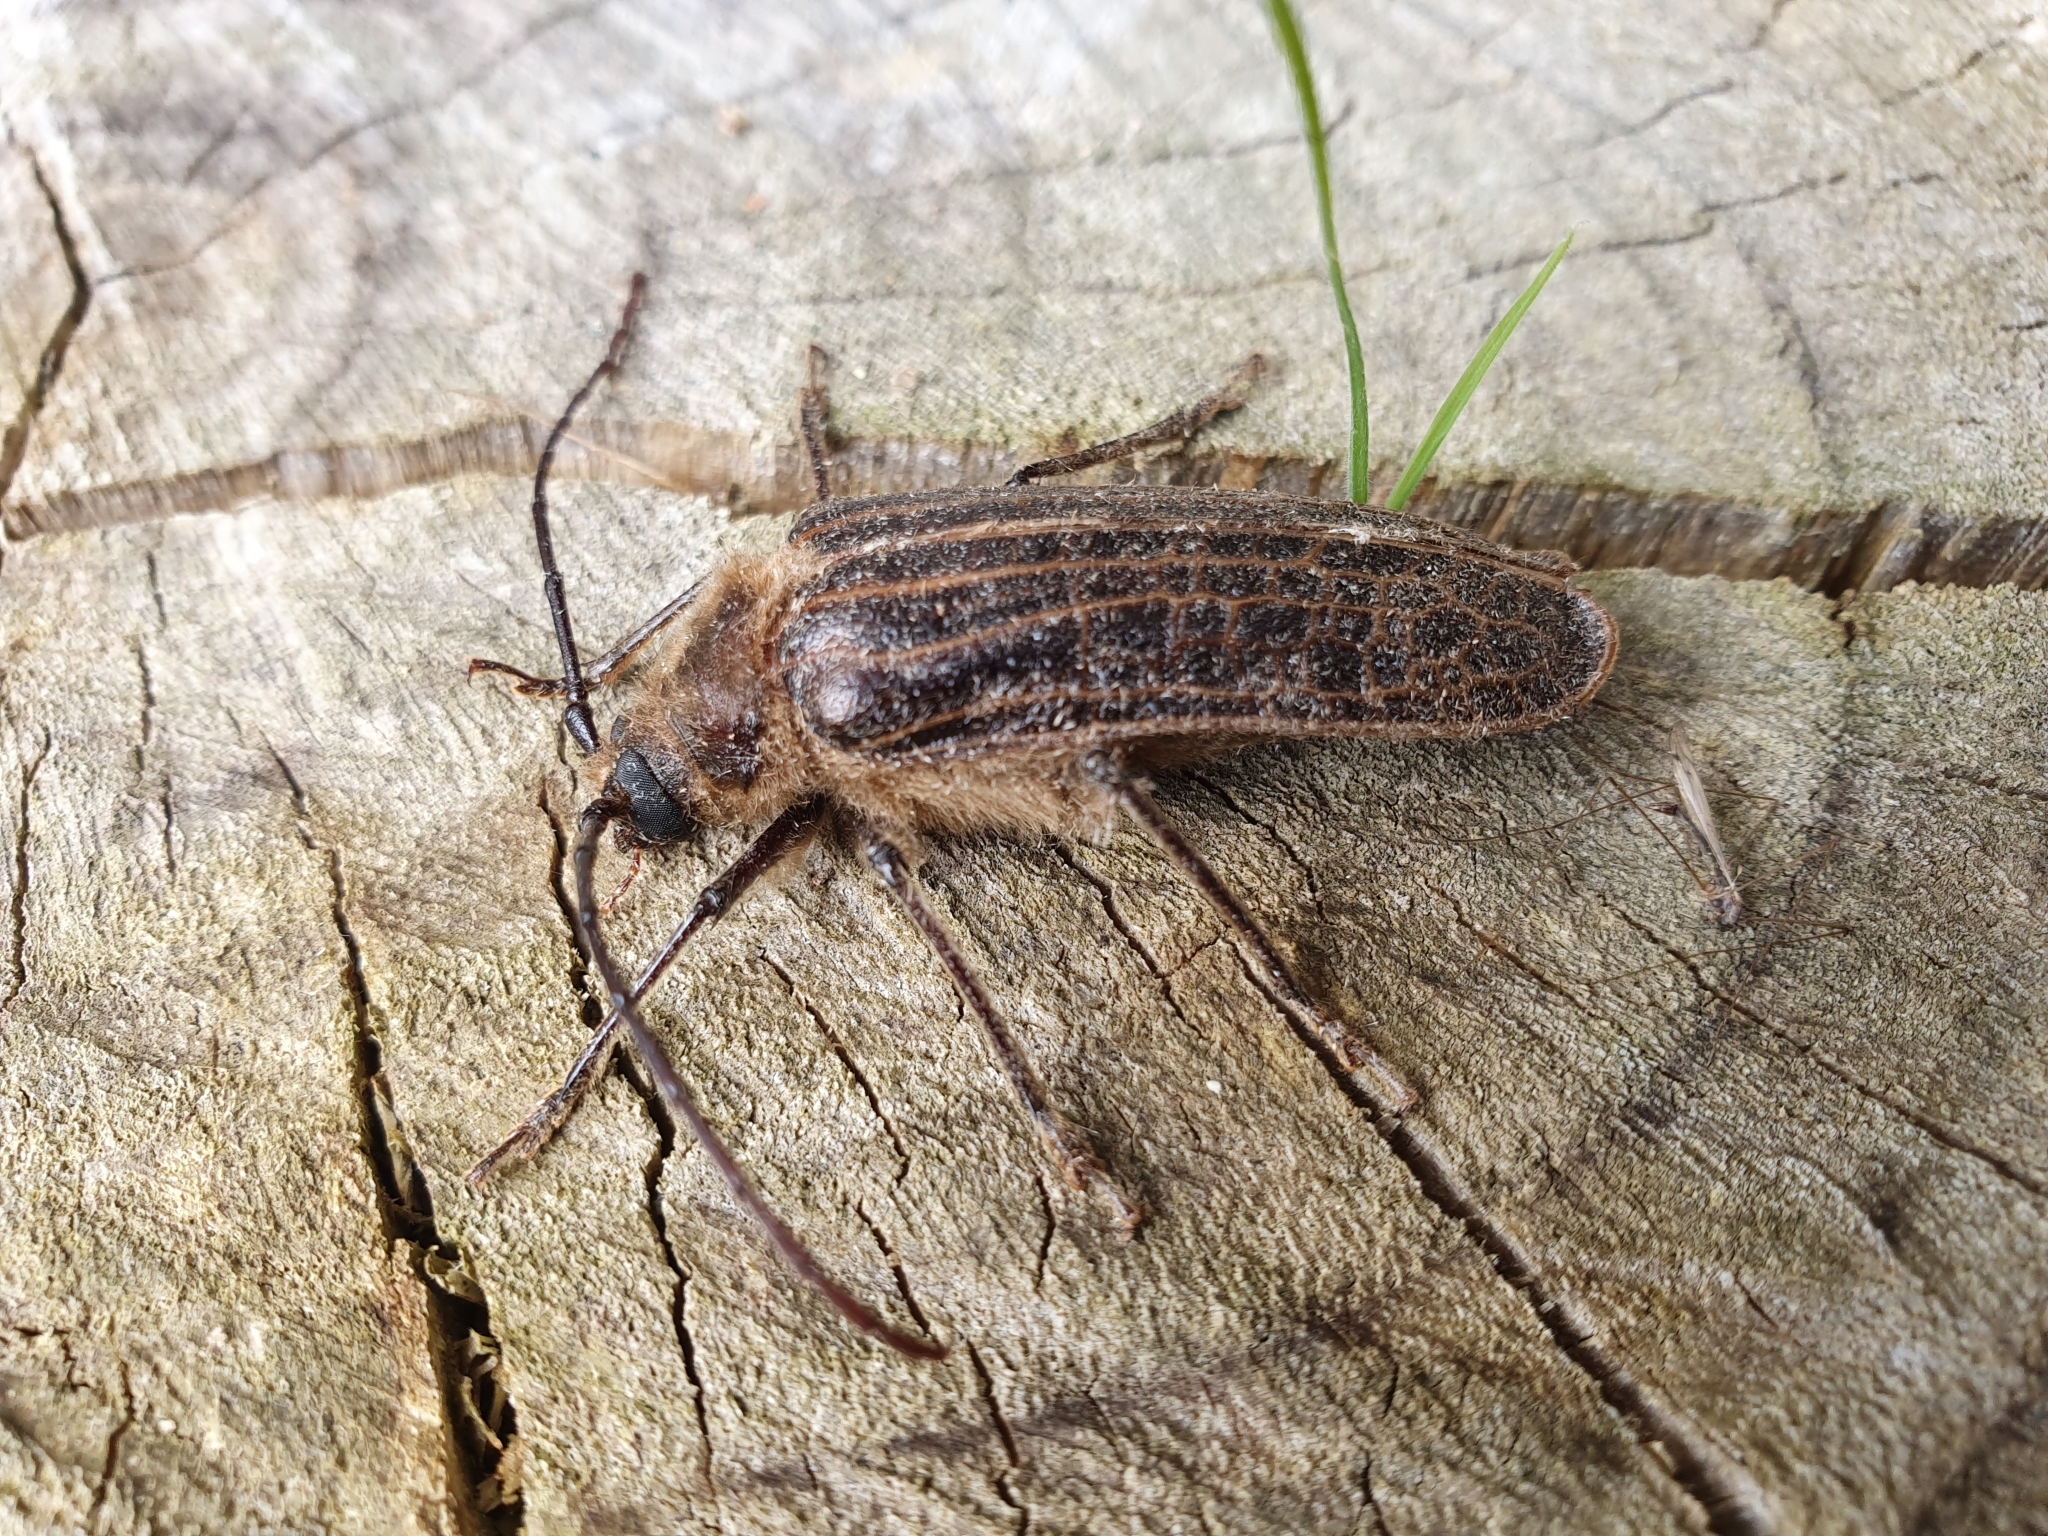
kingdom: Animalia
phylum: Arthropoda
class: Insecta
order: Coleoptera
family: Cerambycidae
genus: Prionoplus
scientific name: Prionoplus reticularis
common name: Huhu beetle
